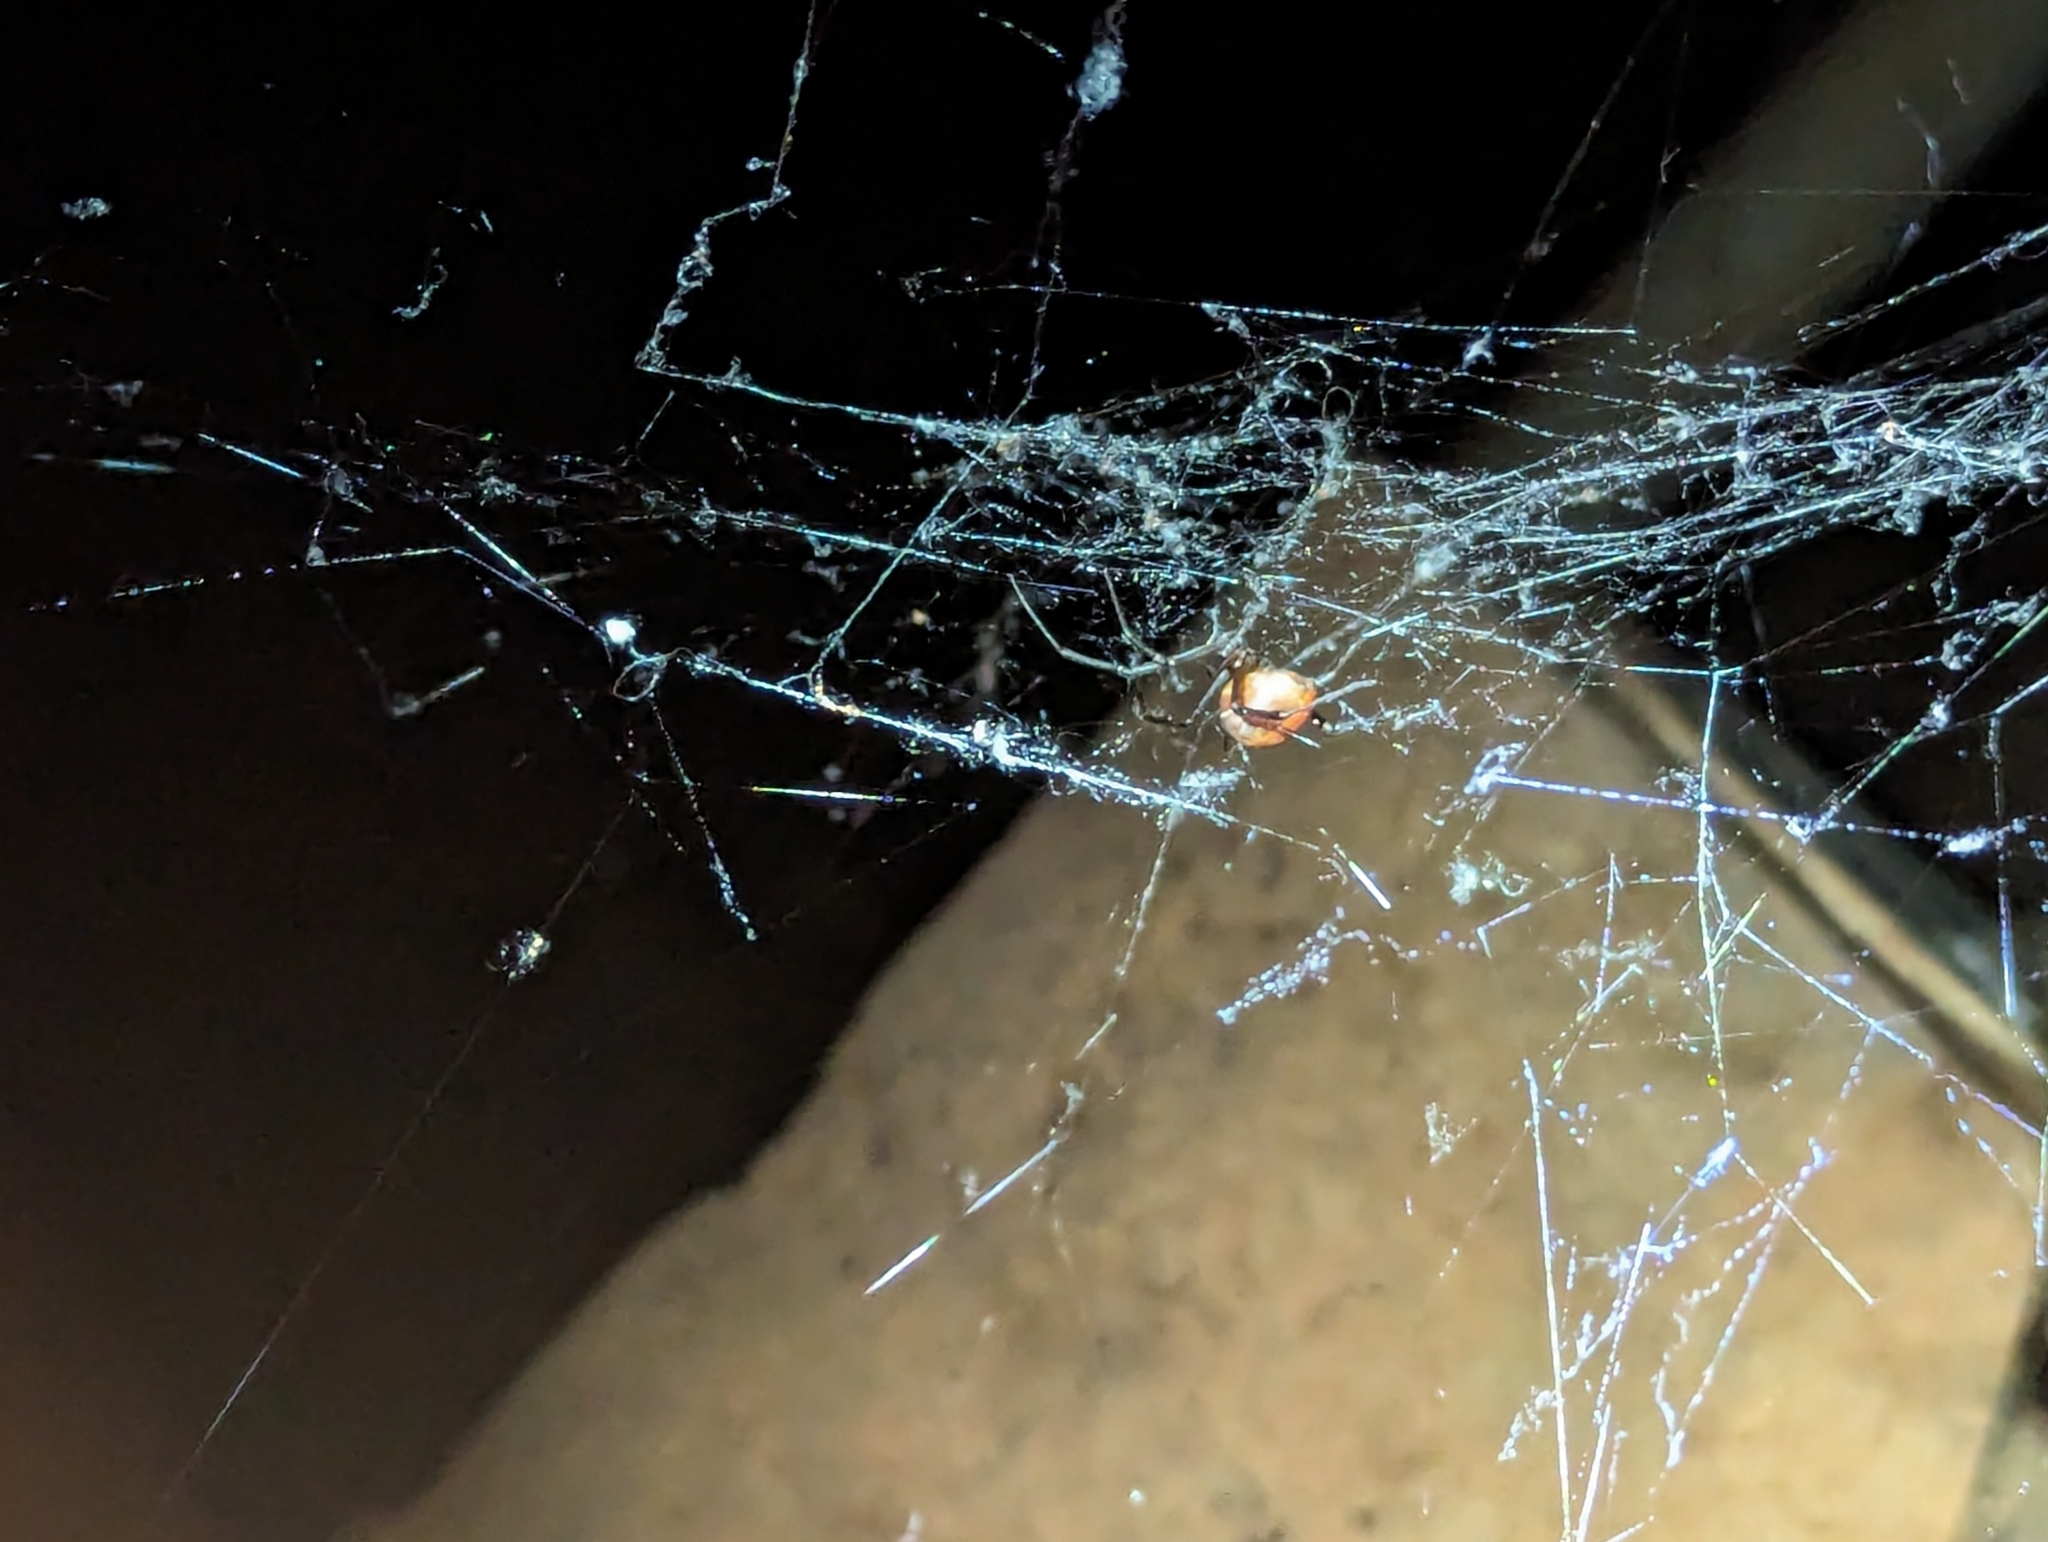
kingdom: Animalia
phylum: Arthropoda
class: Arachnida
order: Araneae
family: Theridiidae
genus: Latrodectus
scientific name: Latrodectus hasselti
